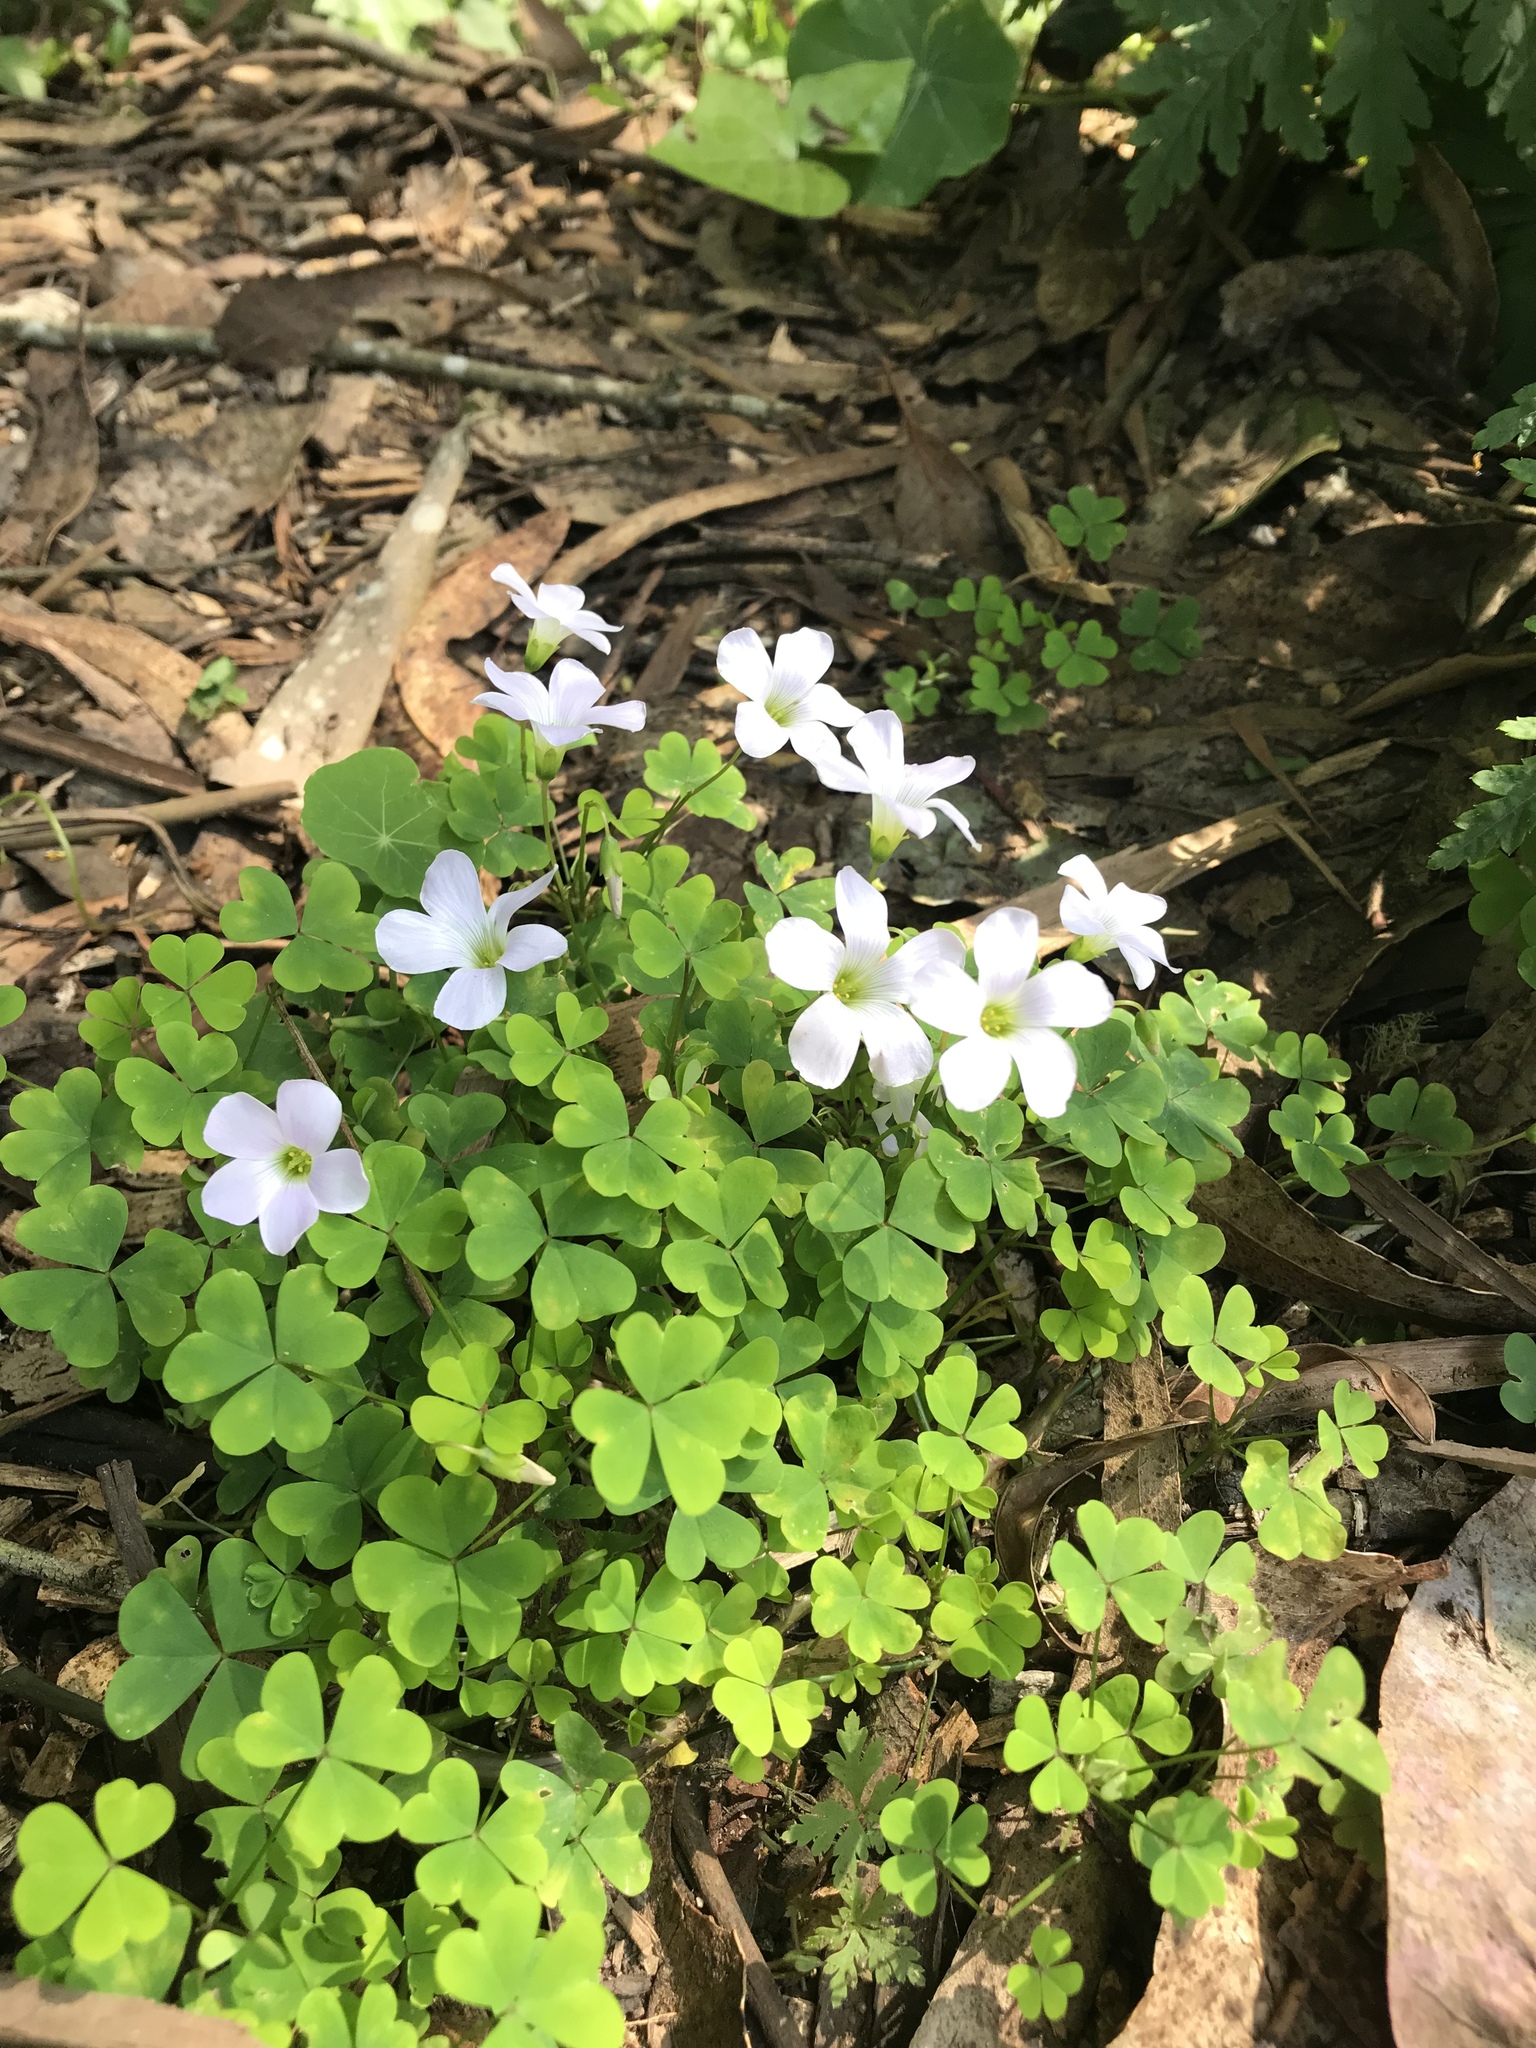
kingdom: Plantae
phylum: Tracheophyta
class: Magnoliopsida
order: Oxalidales
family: Oxalidaceae
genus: Oxalis
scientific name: Oxalis incarnata
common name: Pale pink-sorrel
